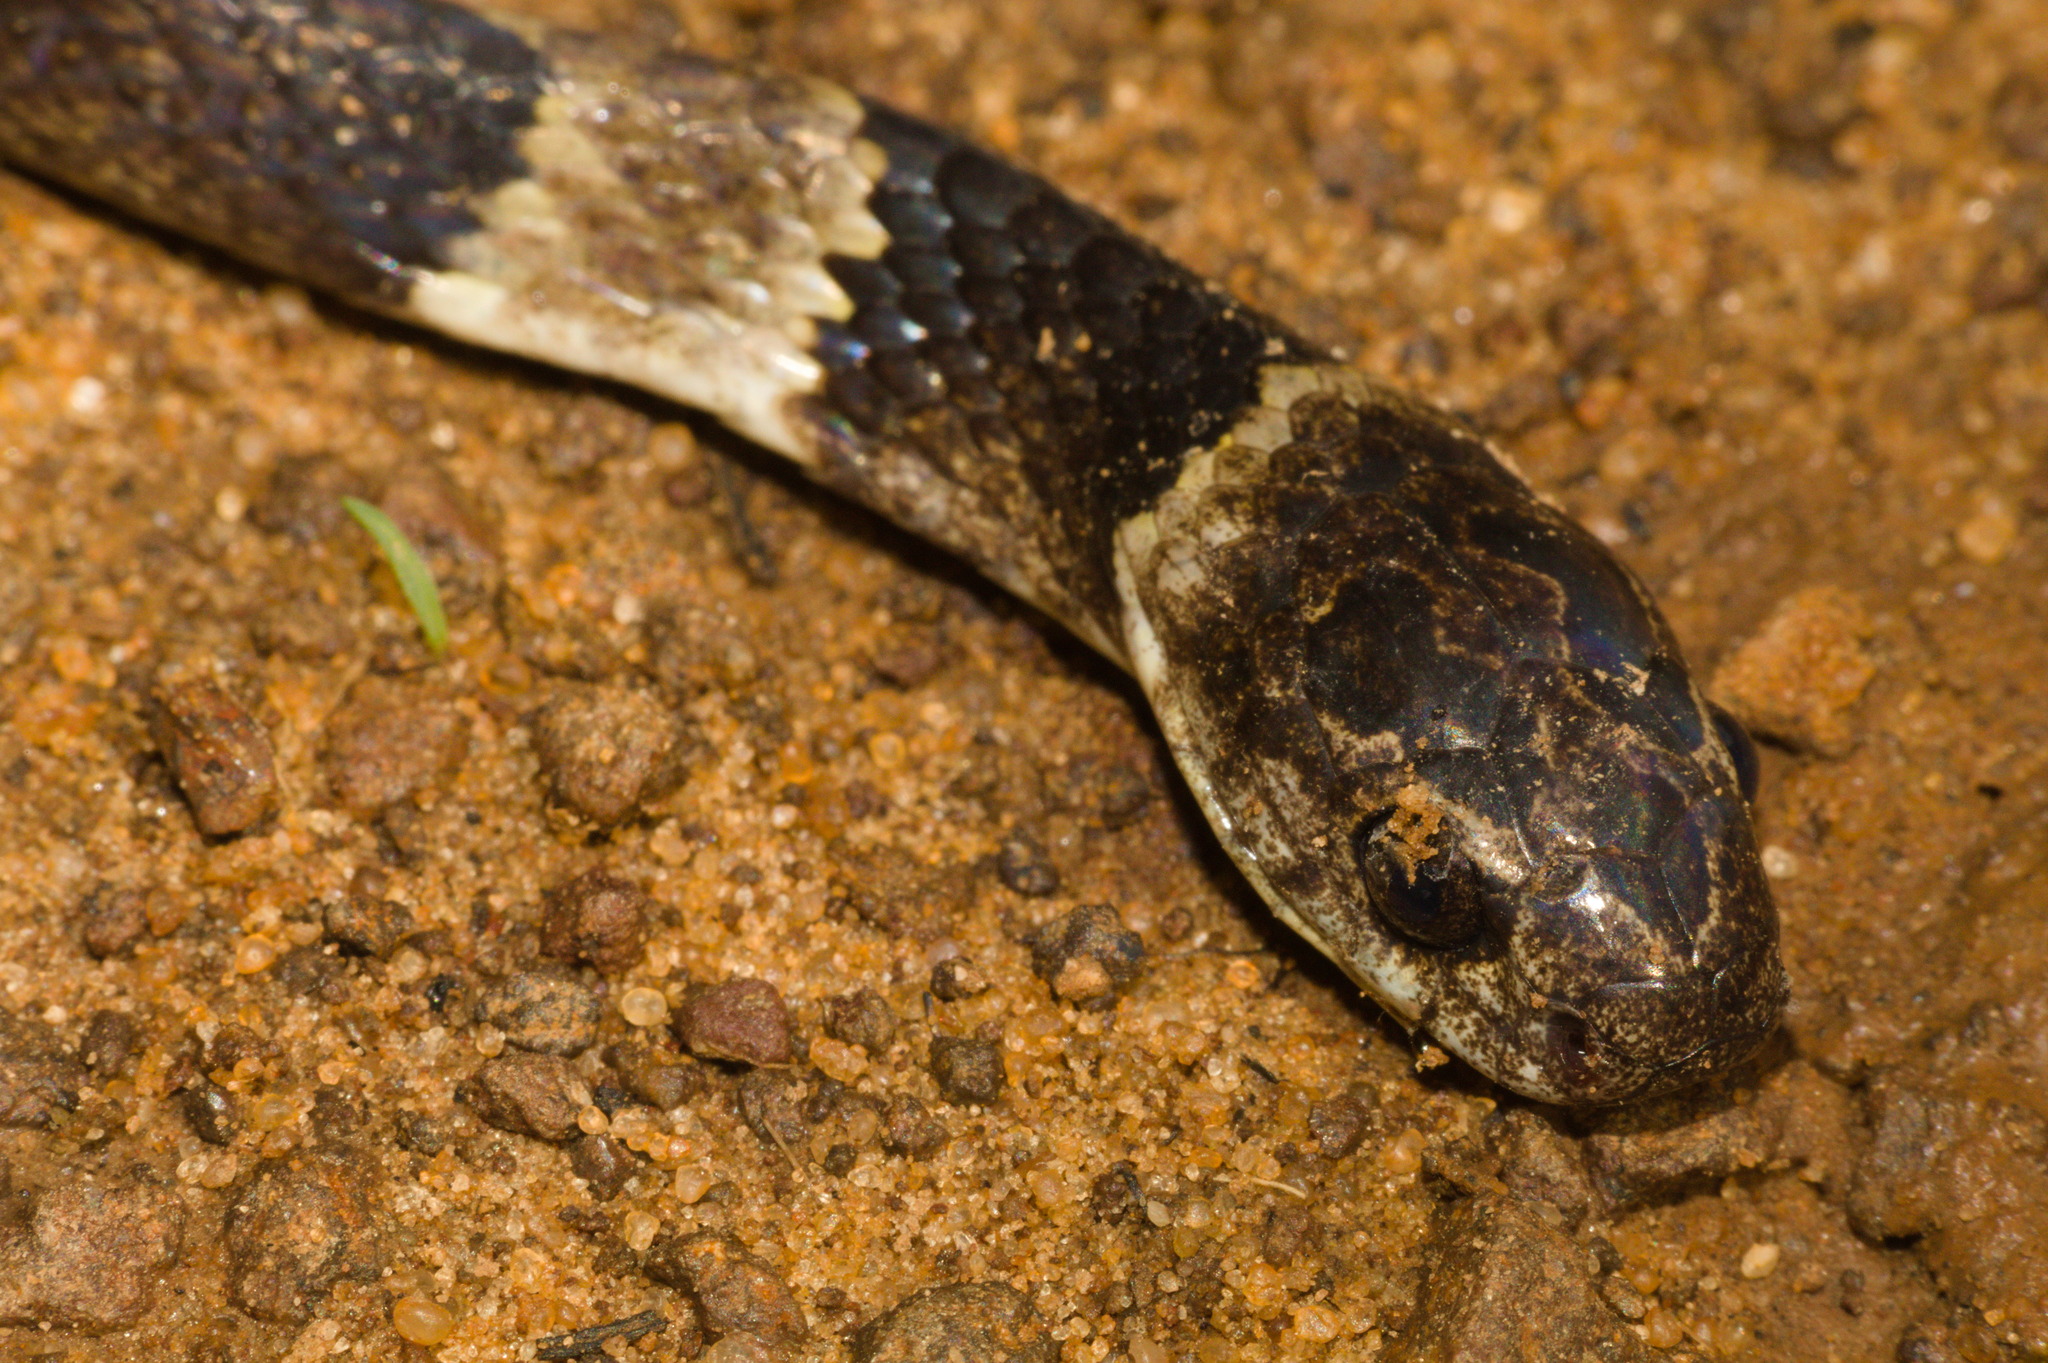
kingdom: Animalia
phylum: Chordata
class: Squamata
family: Colubridae
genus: Dipsas
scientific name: Dipsas neuwiedi
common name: Neuwied's tree snake
